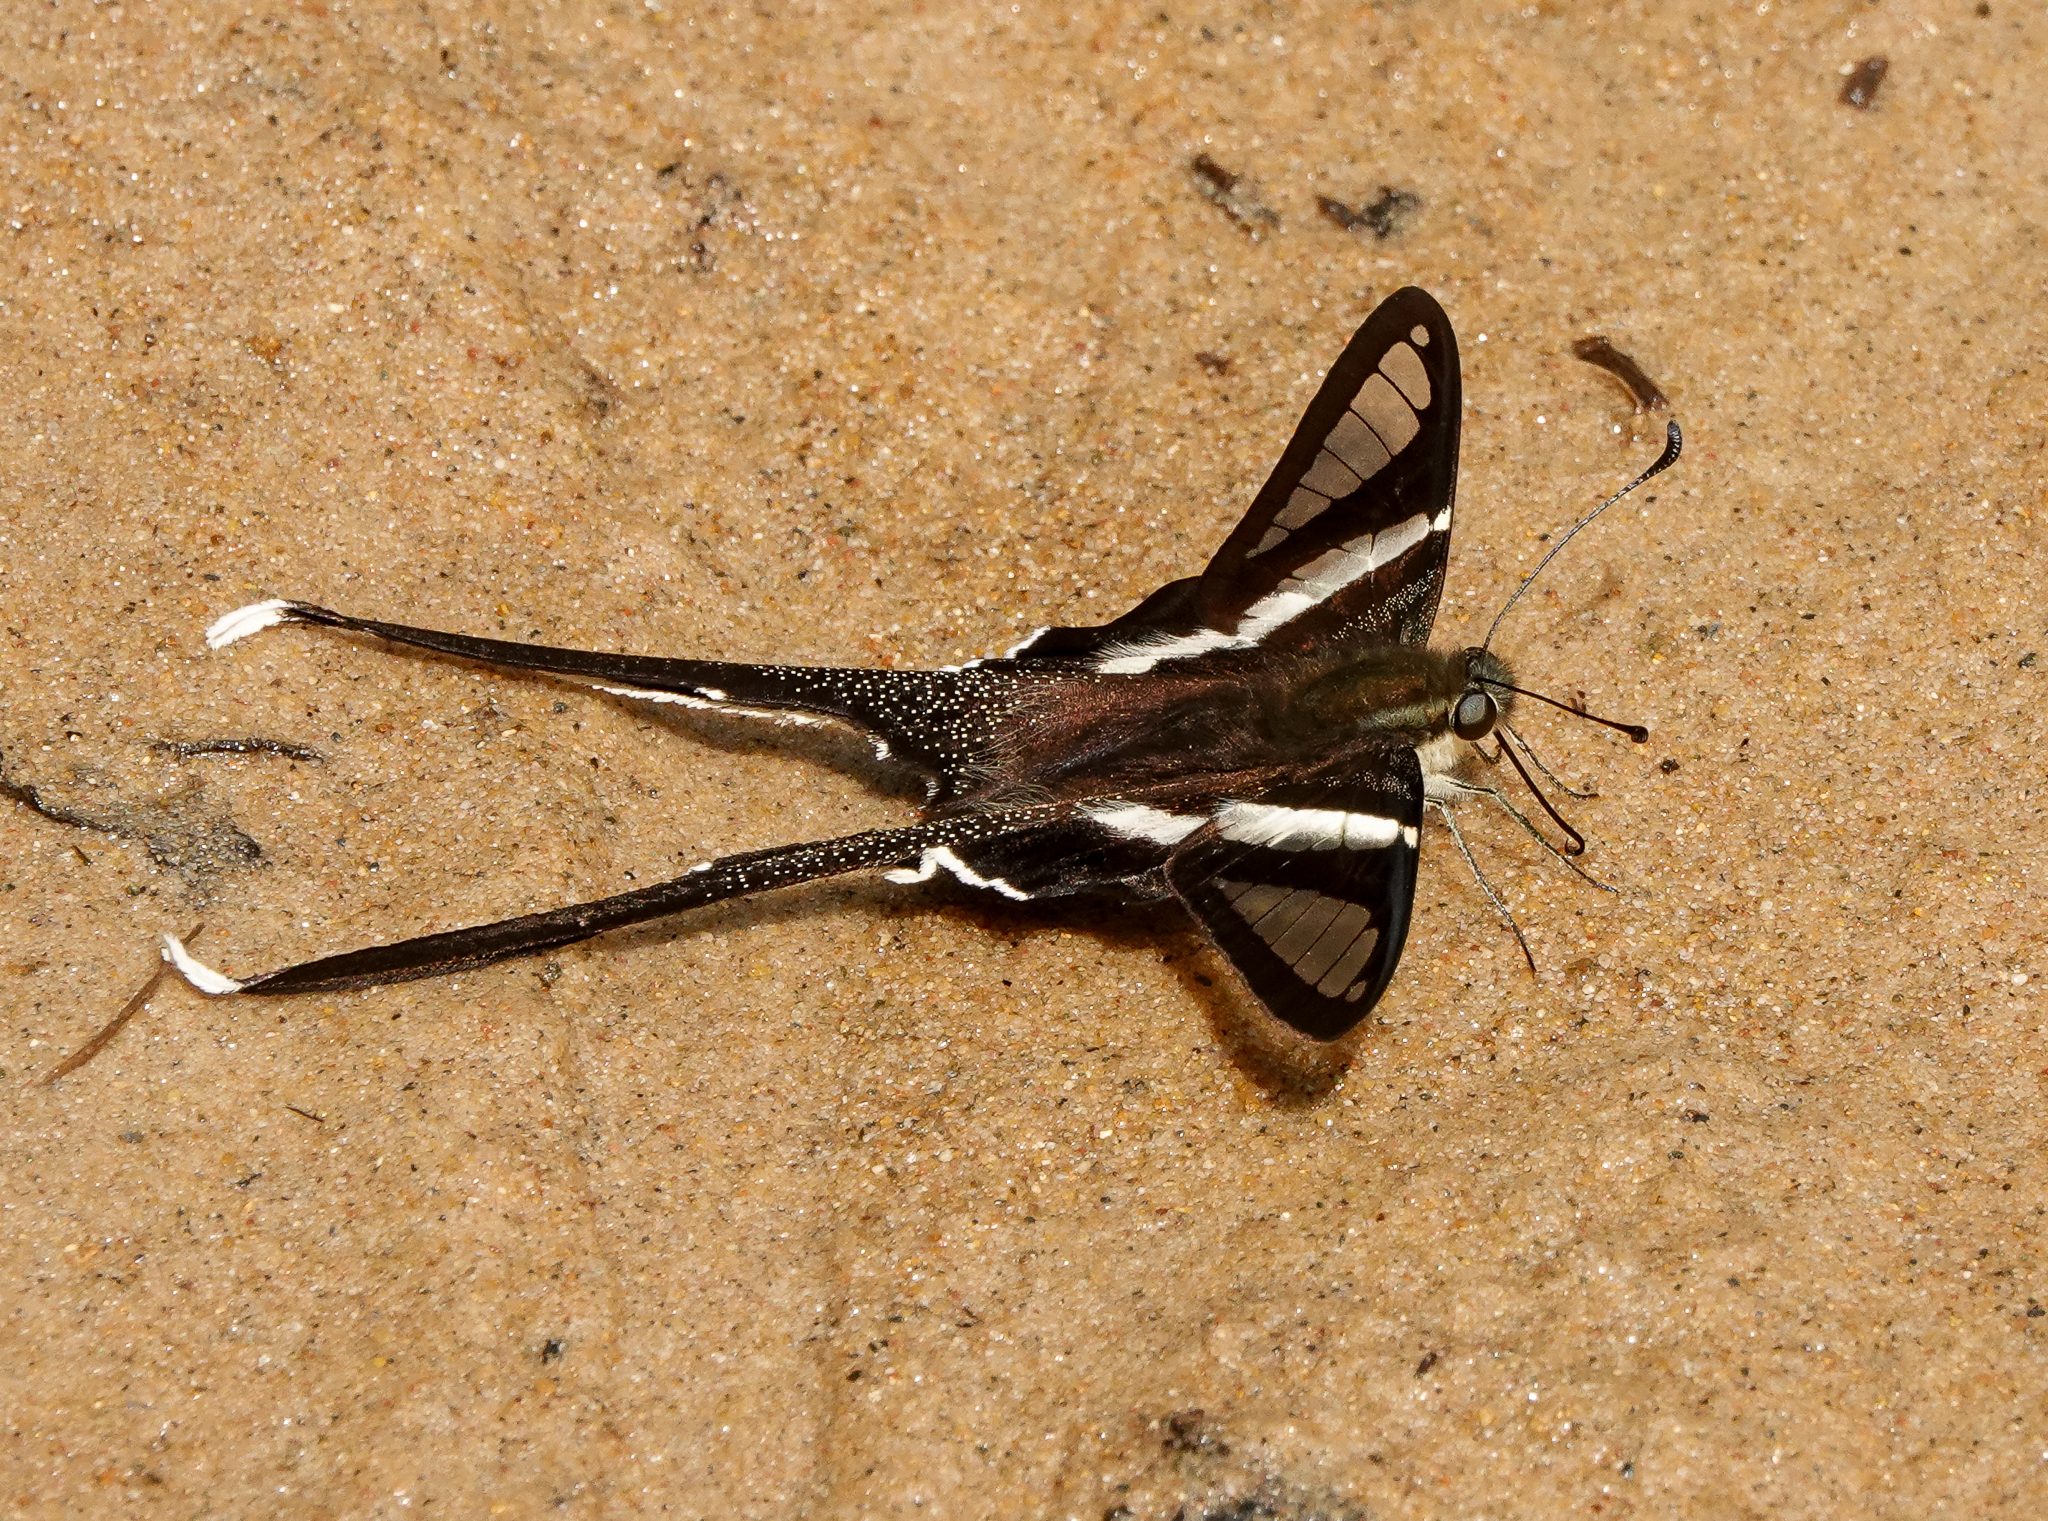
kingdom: Animalia
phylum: Arthropoda
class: Insecta
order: Lepidoptera
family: Papilionidae
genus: Lamproptera
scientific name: Lamproptera curius
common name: White dragontail
